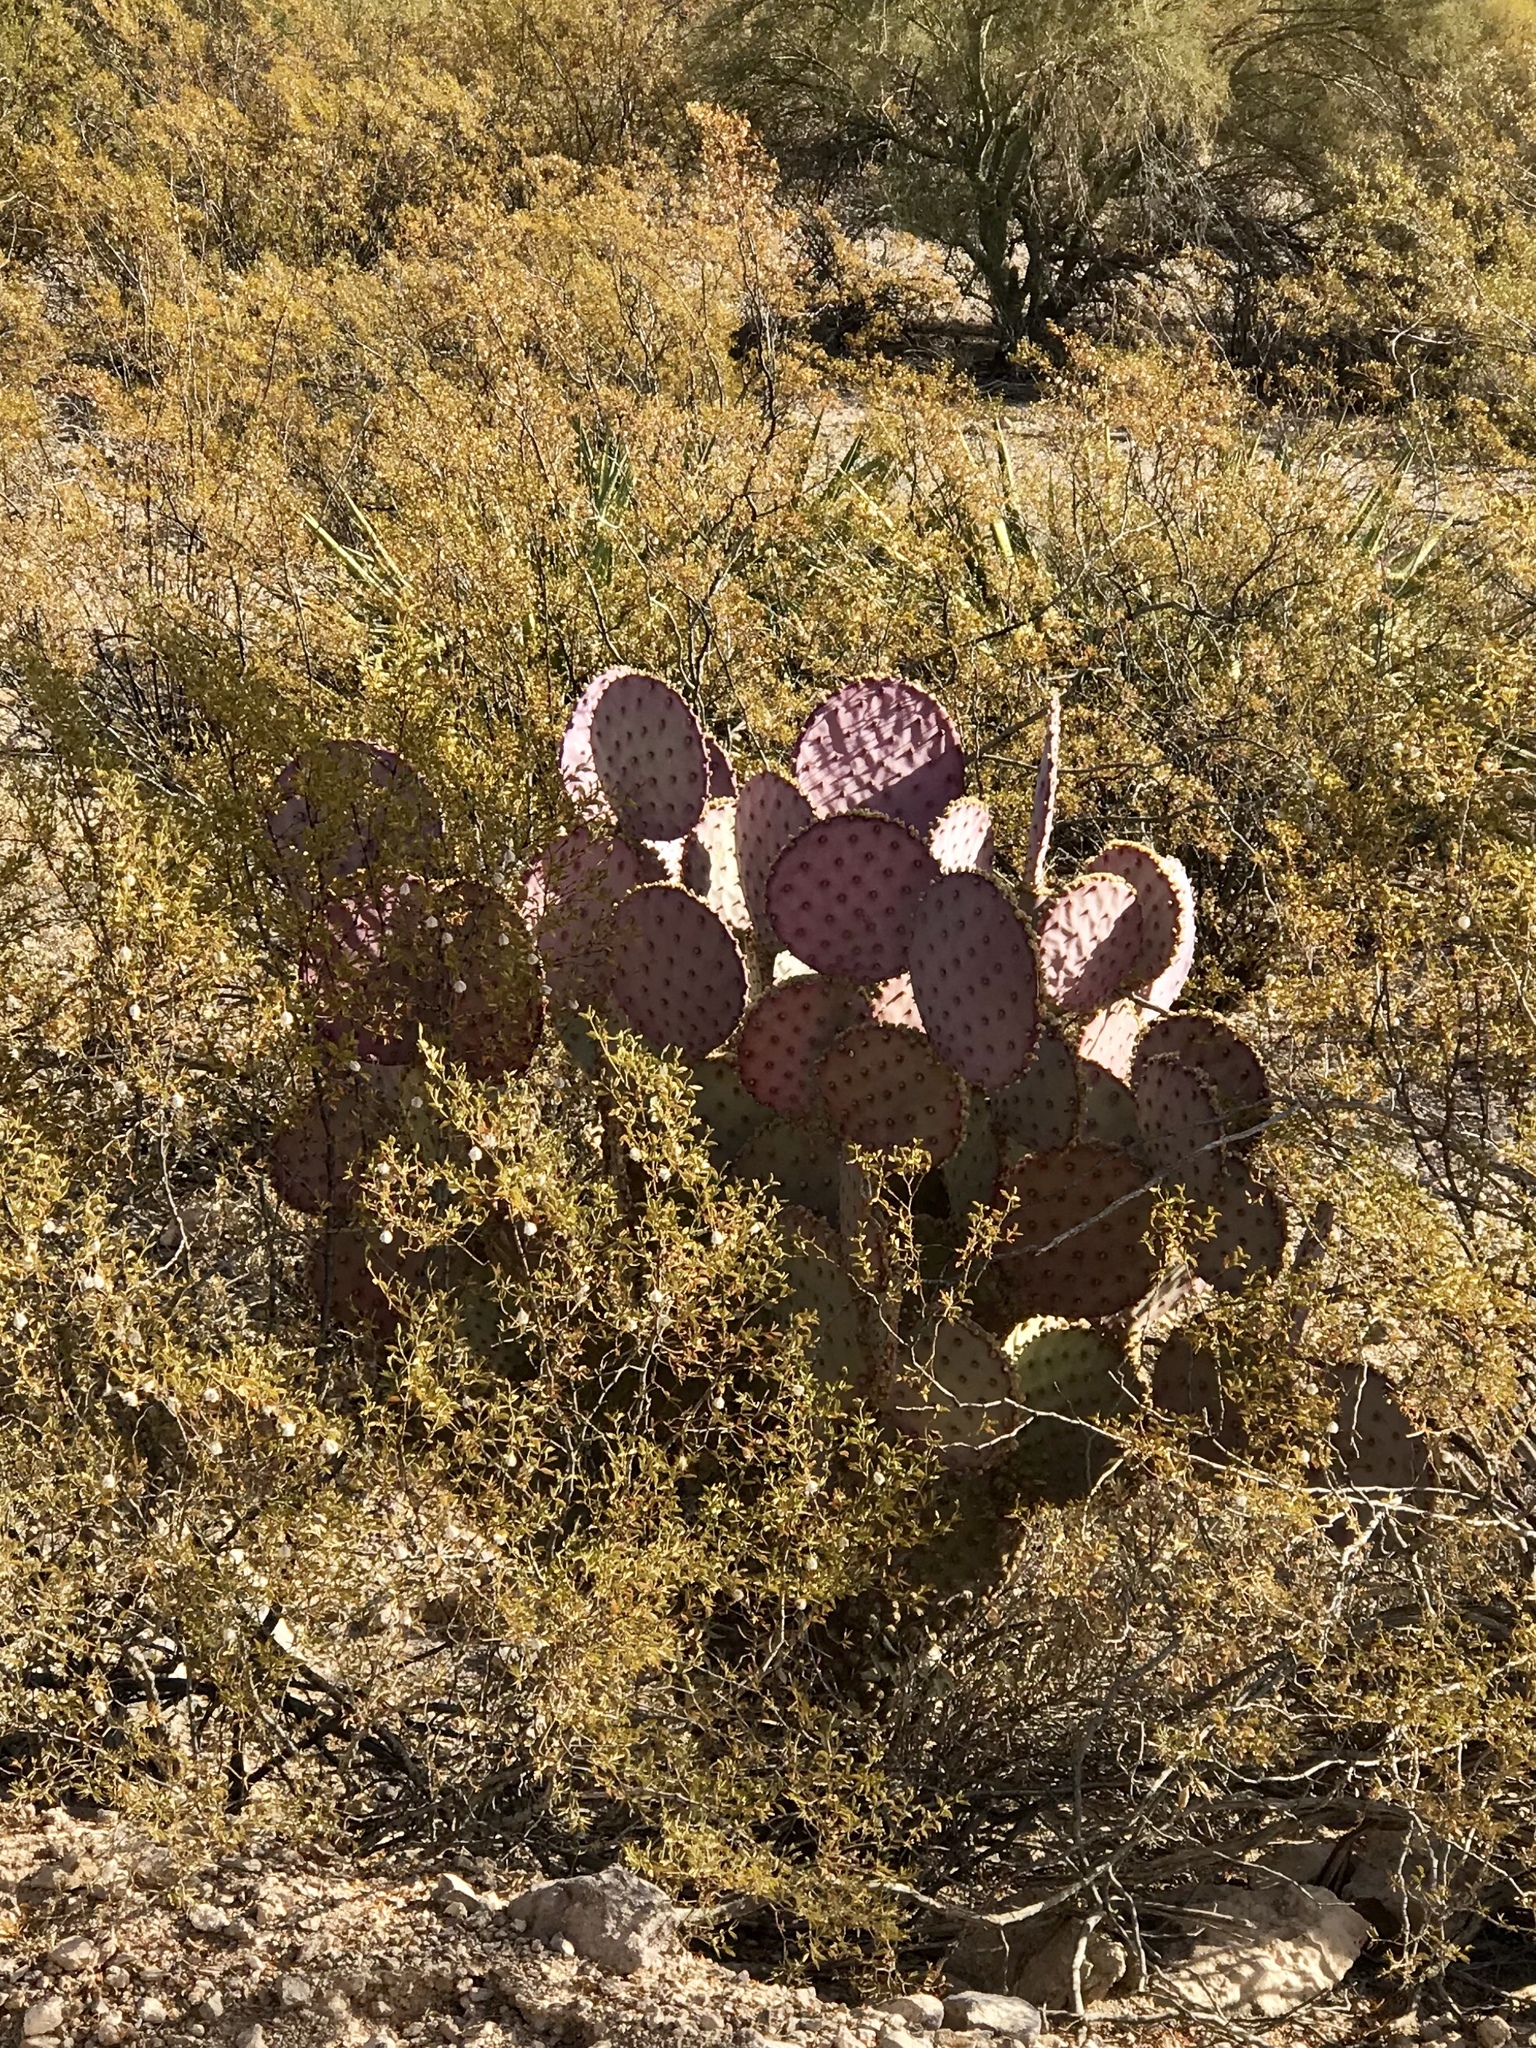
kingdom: Plantae
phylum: Tracheophyta
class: Magnoliopsida
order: Caryophyllales
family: Cactaceae
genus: Opuntia
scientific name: Opuntia gosseliniana
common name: Violet prickly-pear
